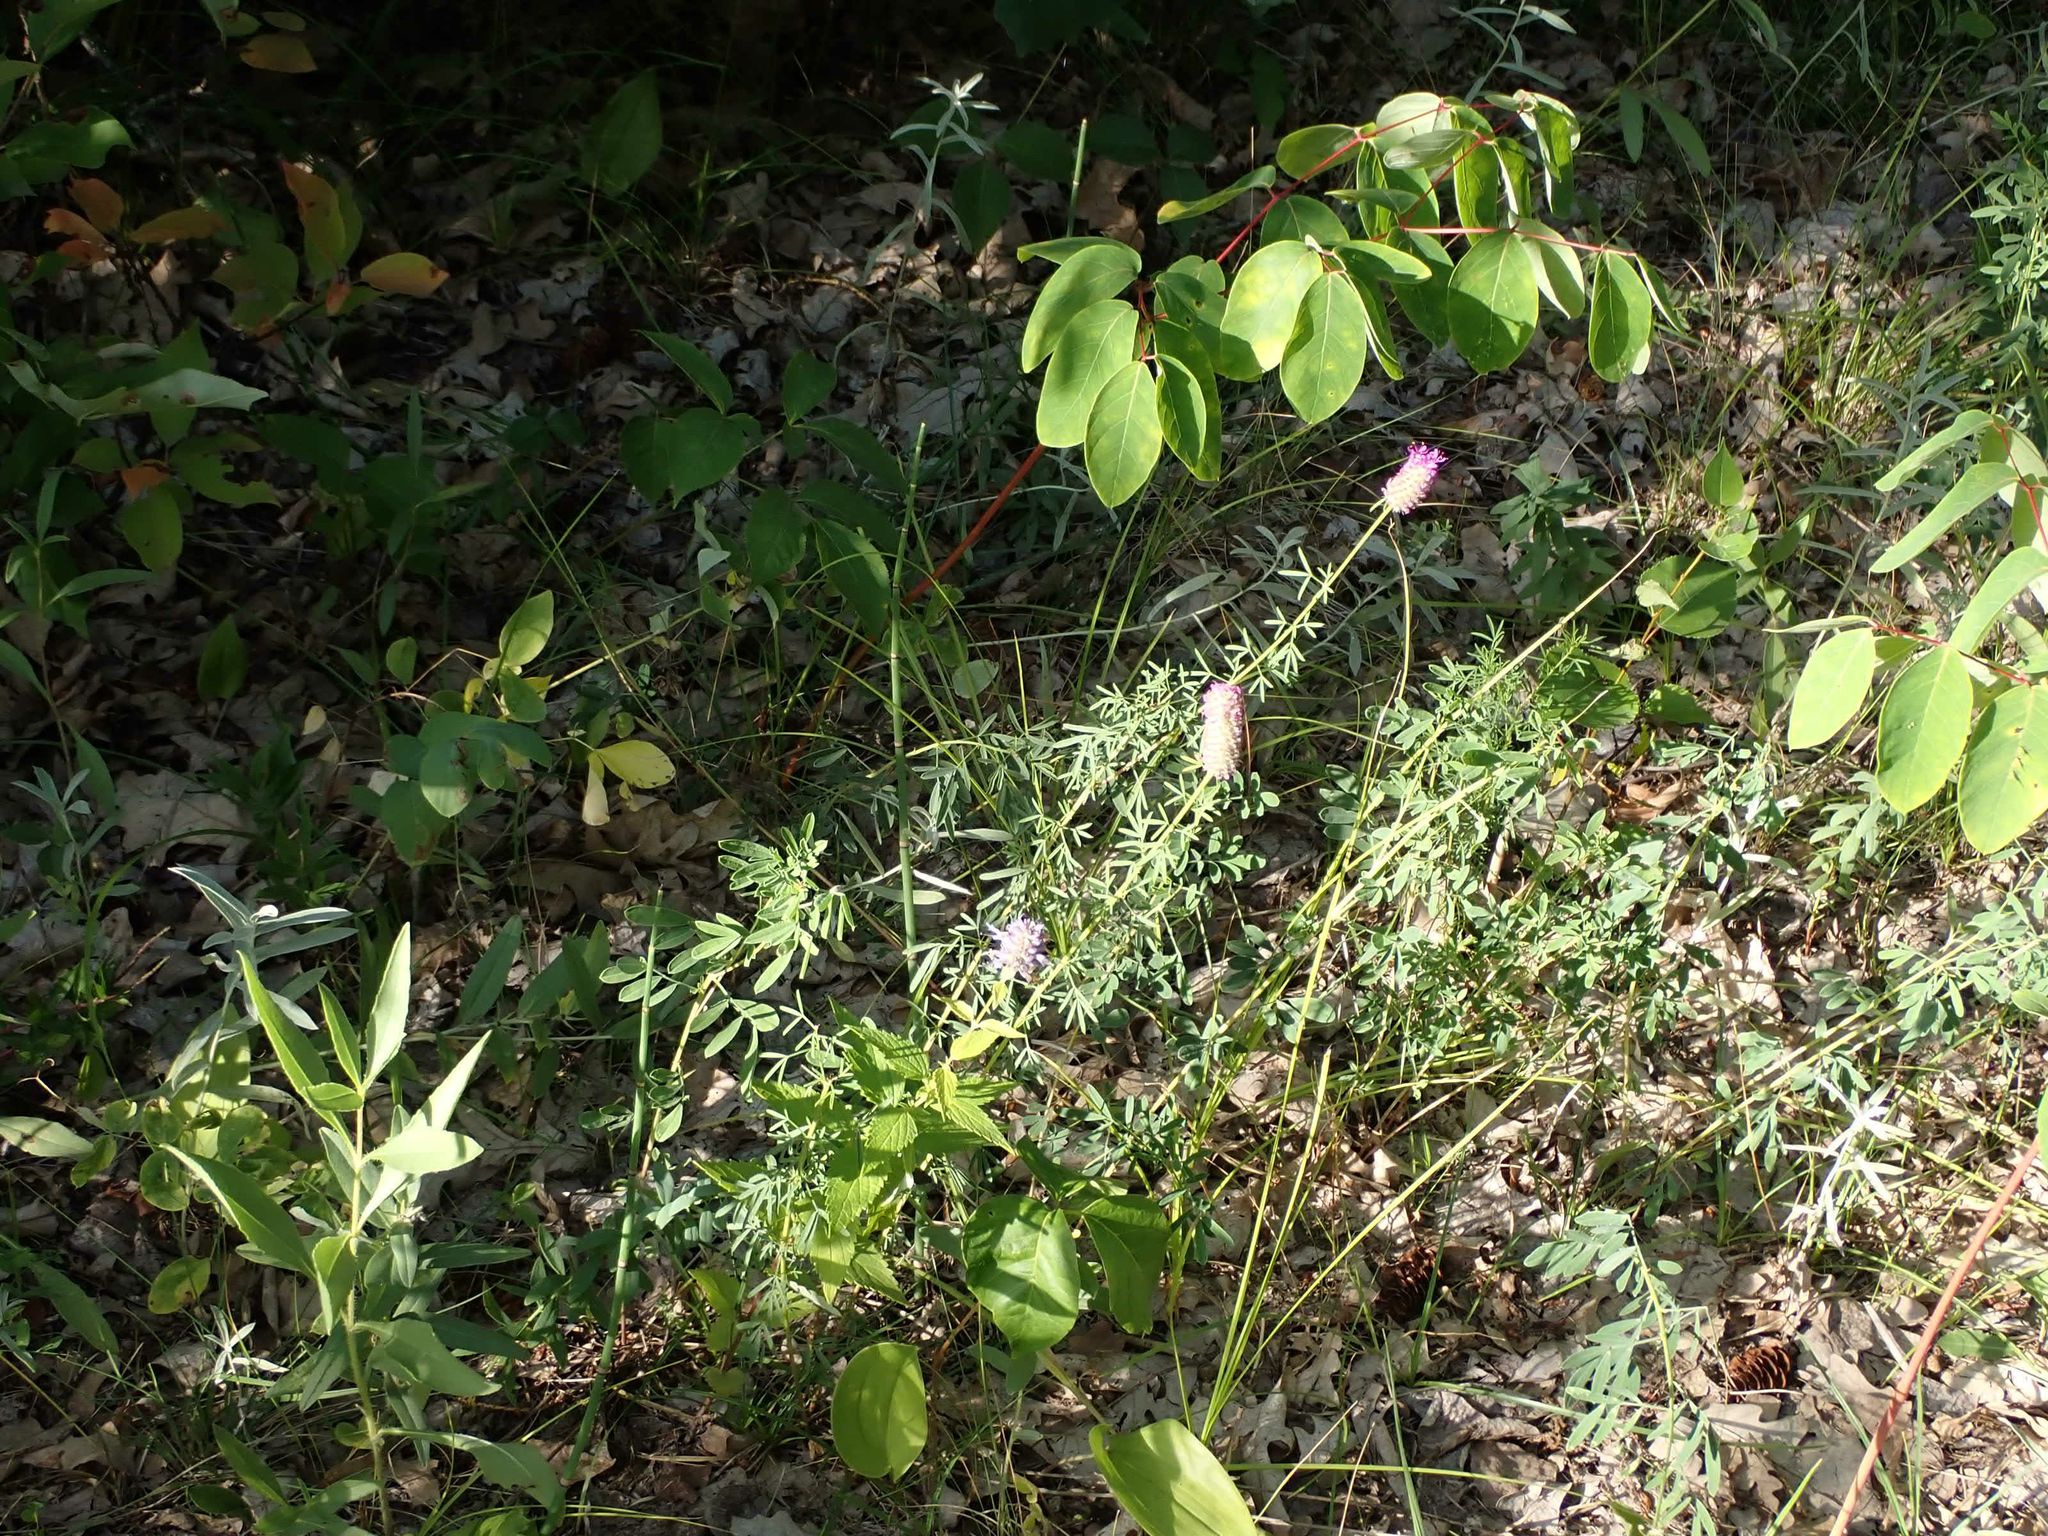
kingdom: Plantae
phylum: Tracheophyta
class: Magnoliopsida
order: Fabales
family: Fabaceae
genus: Dalea
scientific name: Dalea purpurea
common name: Purple prairie-clover
